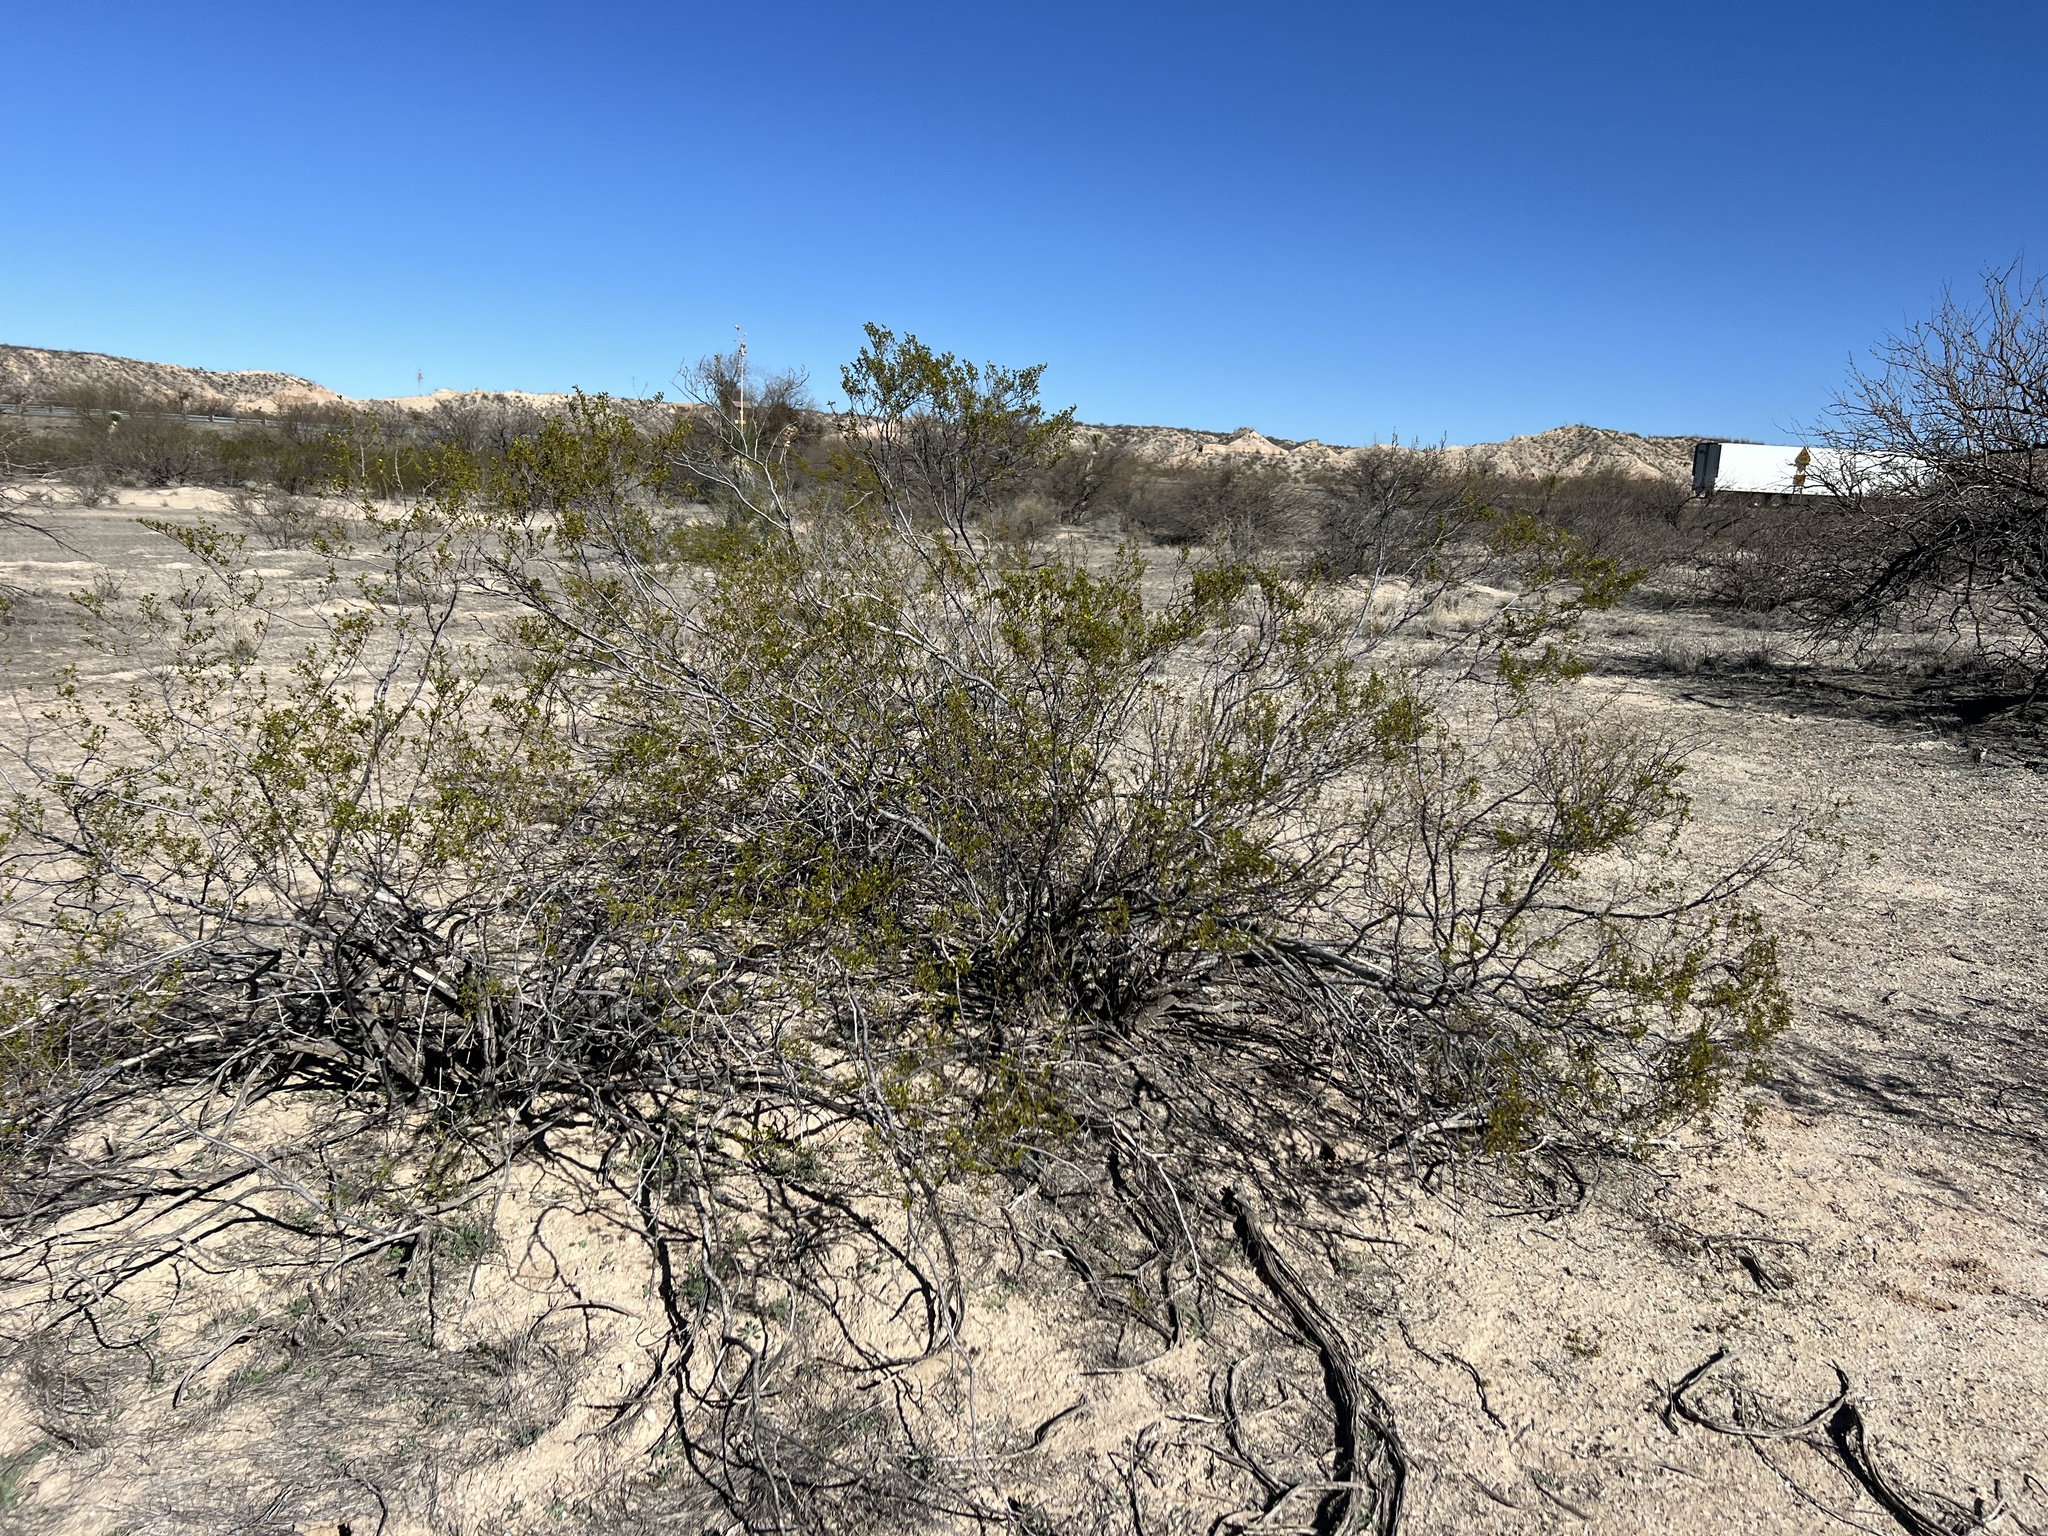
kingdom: Plantae
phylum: Tracheophyta
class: Magnoliopsida
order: Zygophyllales
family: Zygophyllaceae
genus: Larrea
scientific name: Larrea tridentata
